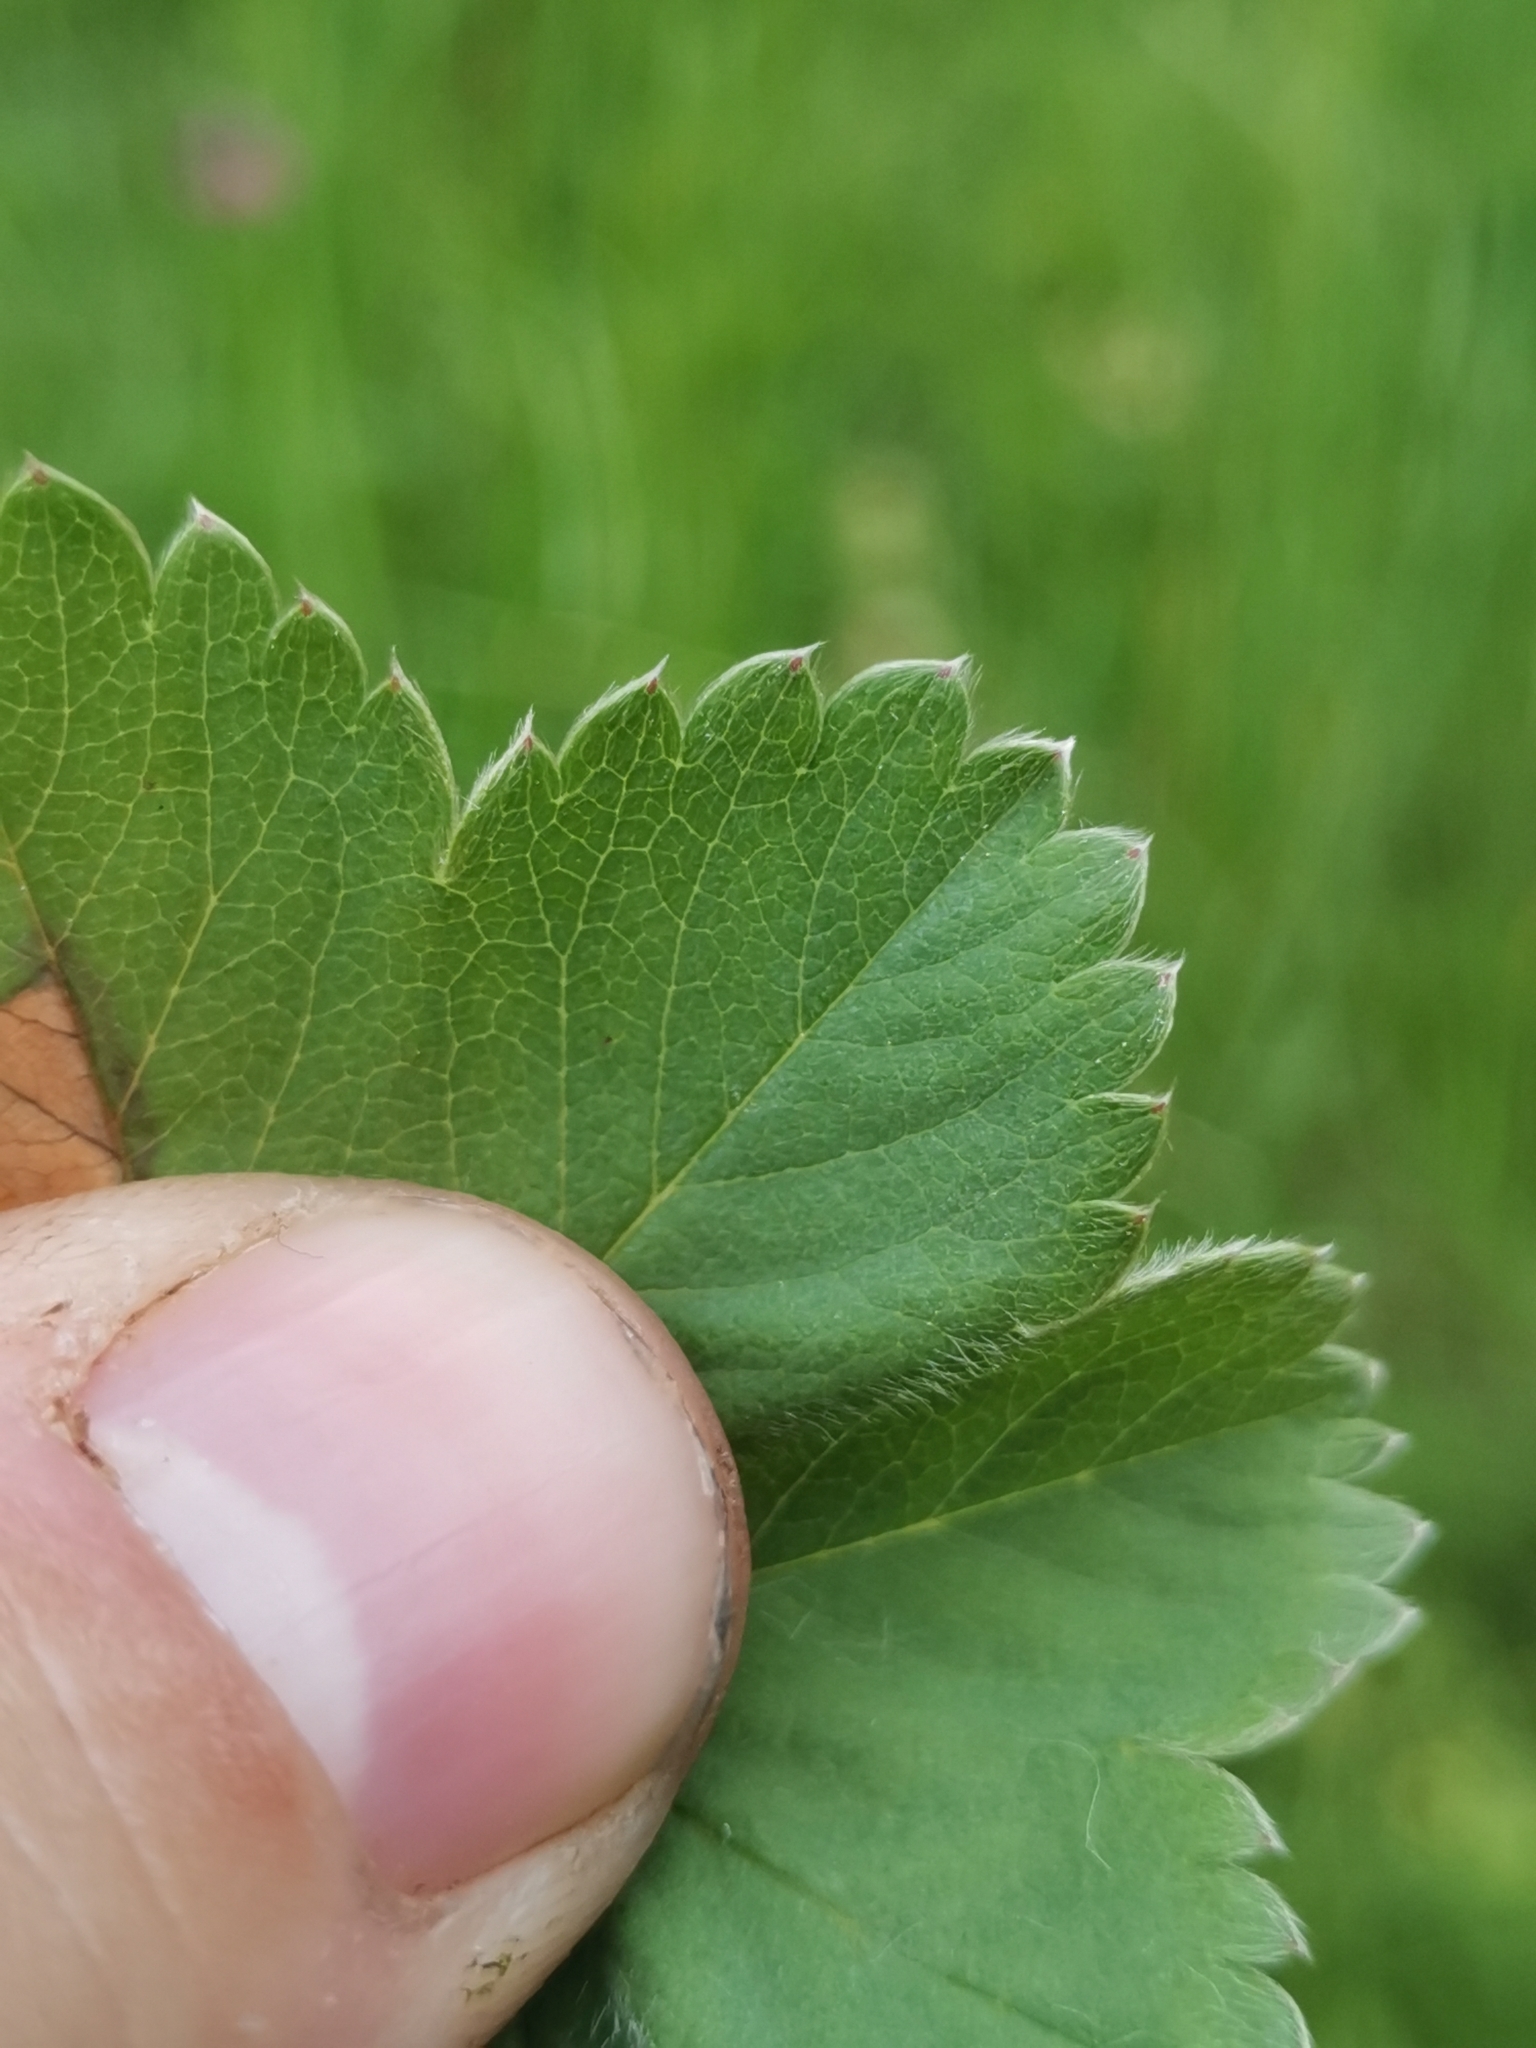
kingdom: Plantae
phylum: Tracheophyta
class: Magnoliopsida
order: Rosales
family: Rosaceae
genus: Alchemilla
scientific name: Alchemilla glaucescens
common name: Silky lady's mantle
